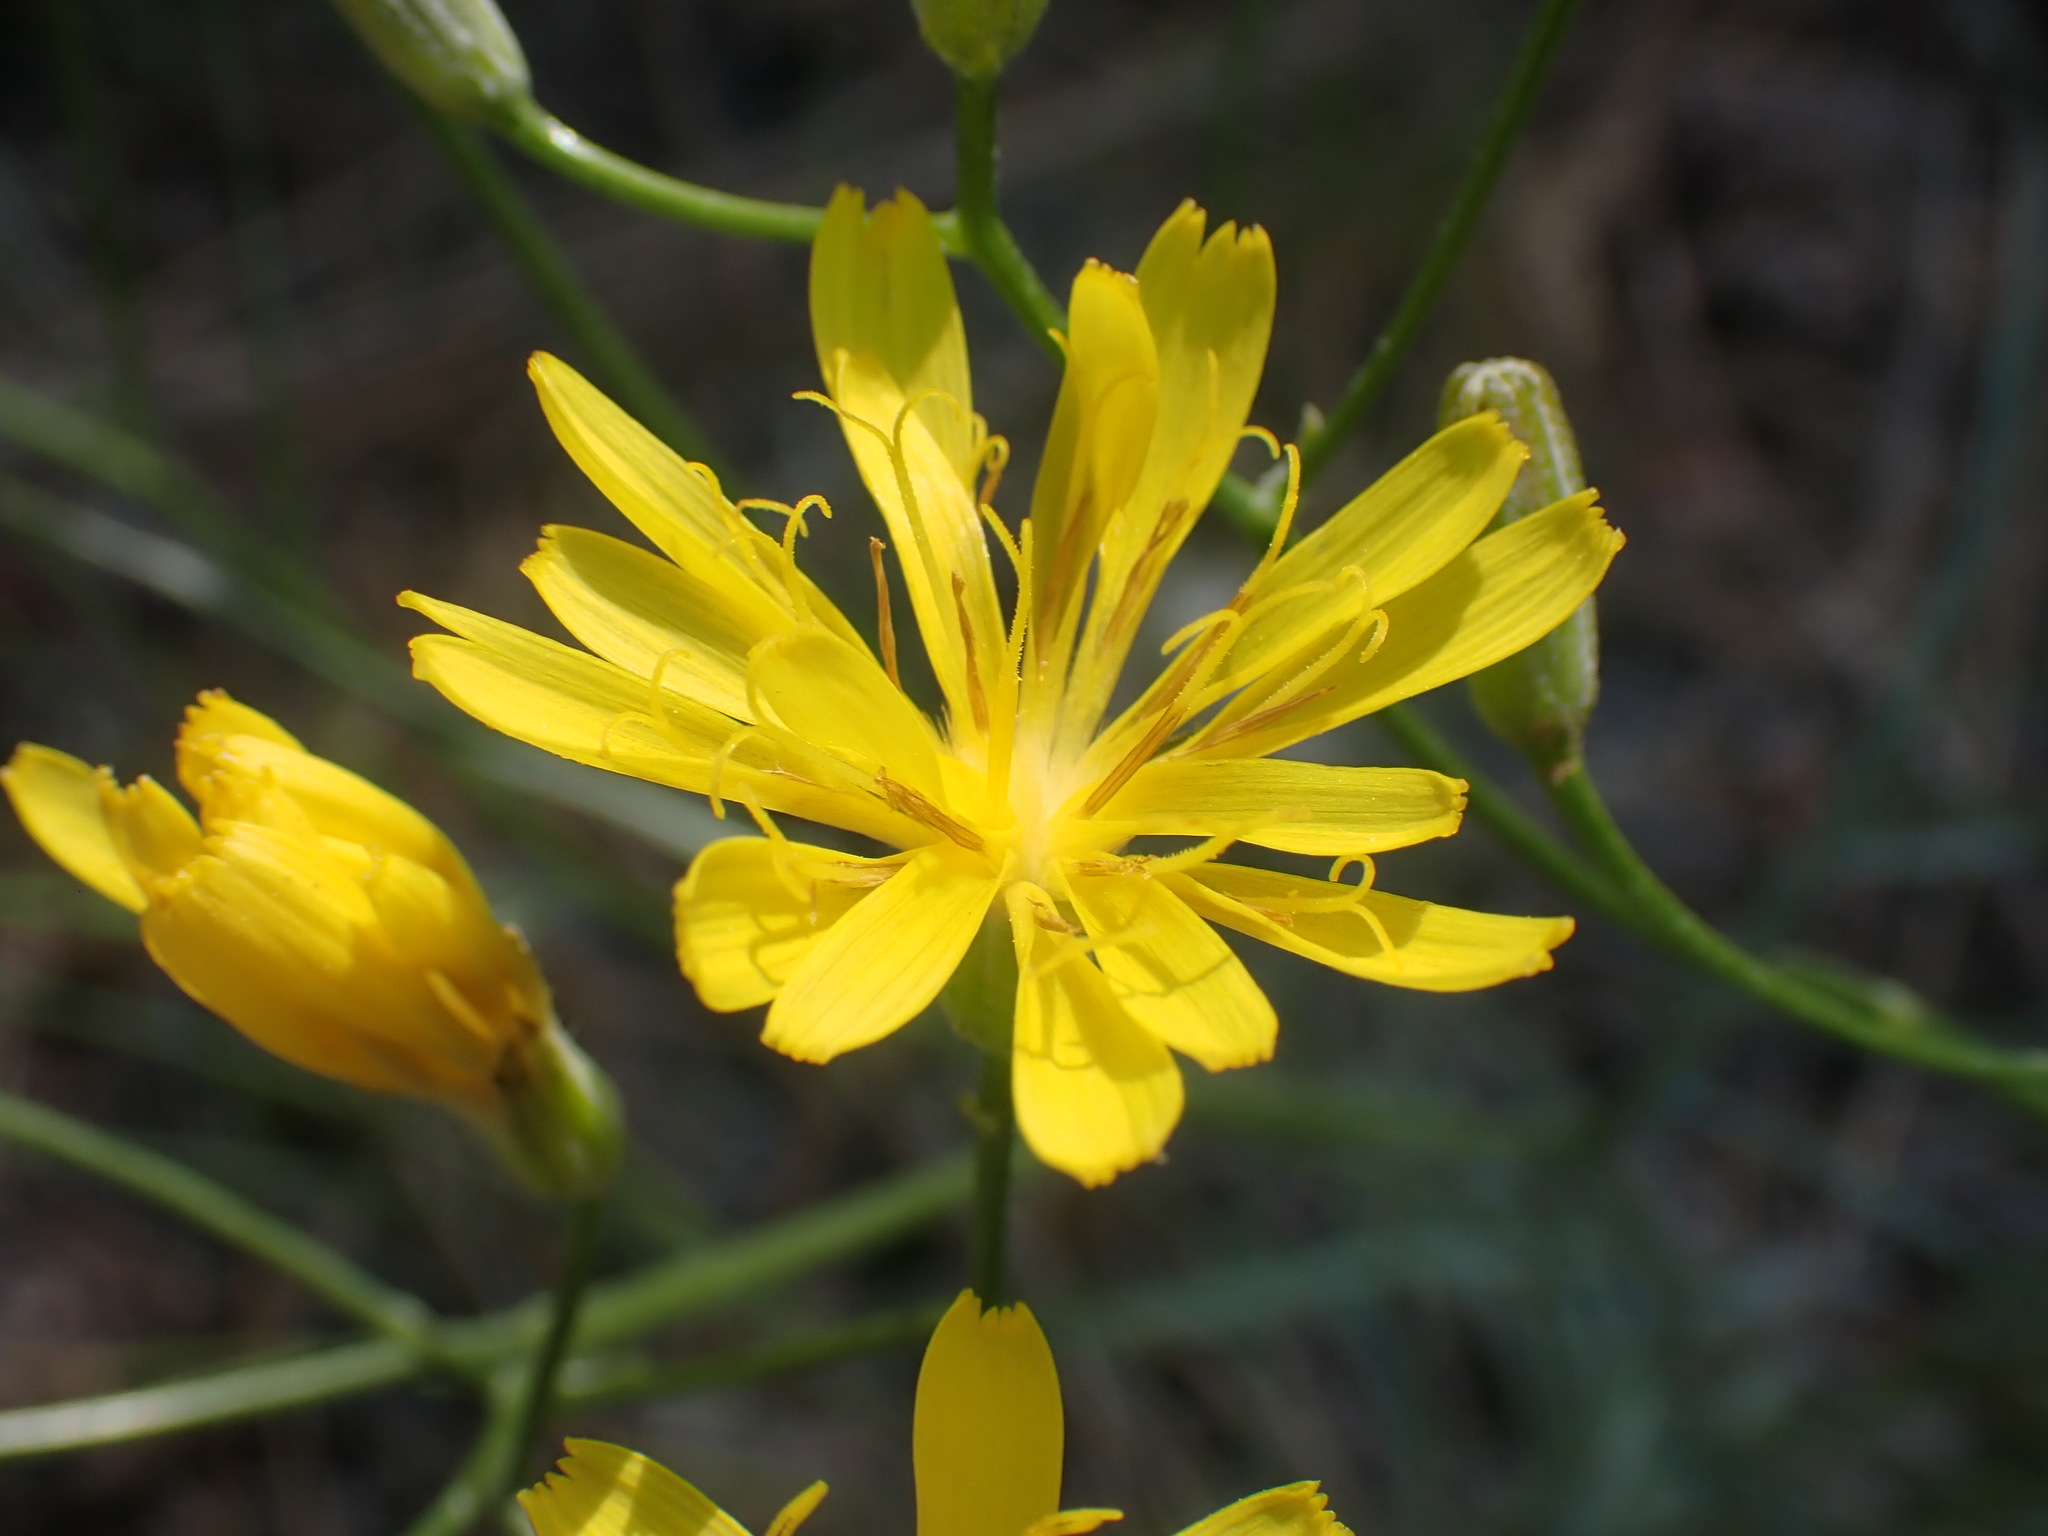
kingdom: Plantae
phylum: Tracheophyta
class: Magnoliopsida
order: Asterales
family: Asteraceae
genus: Crepis
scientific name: Crepis atribarba
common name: Dark hawk's-beard
